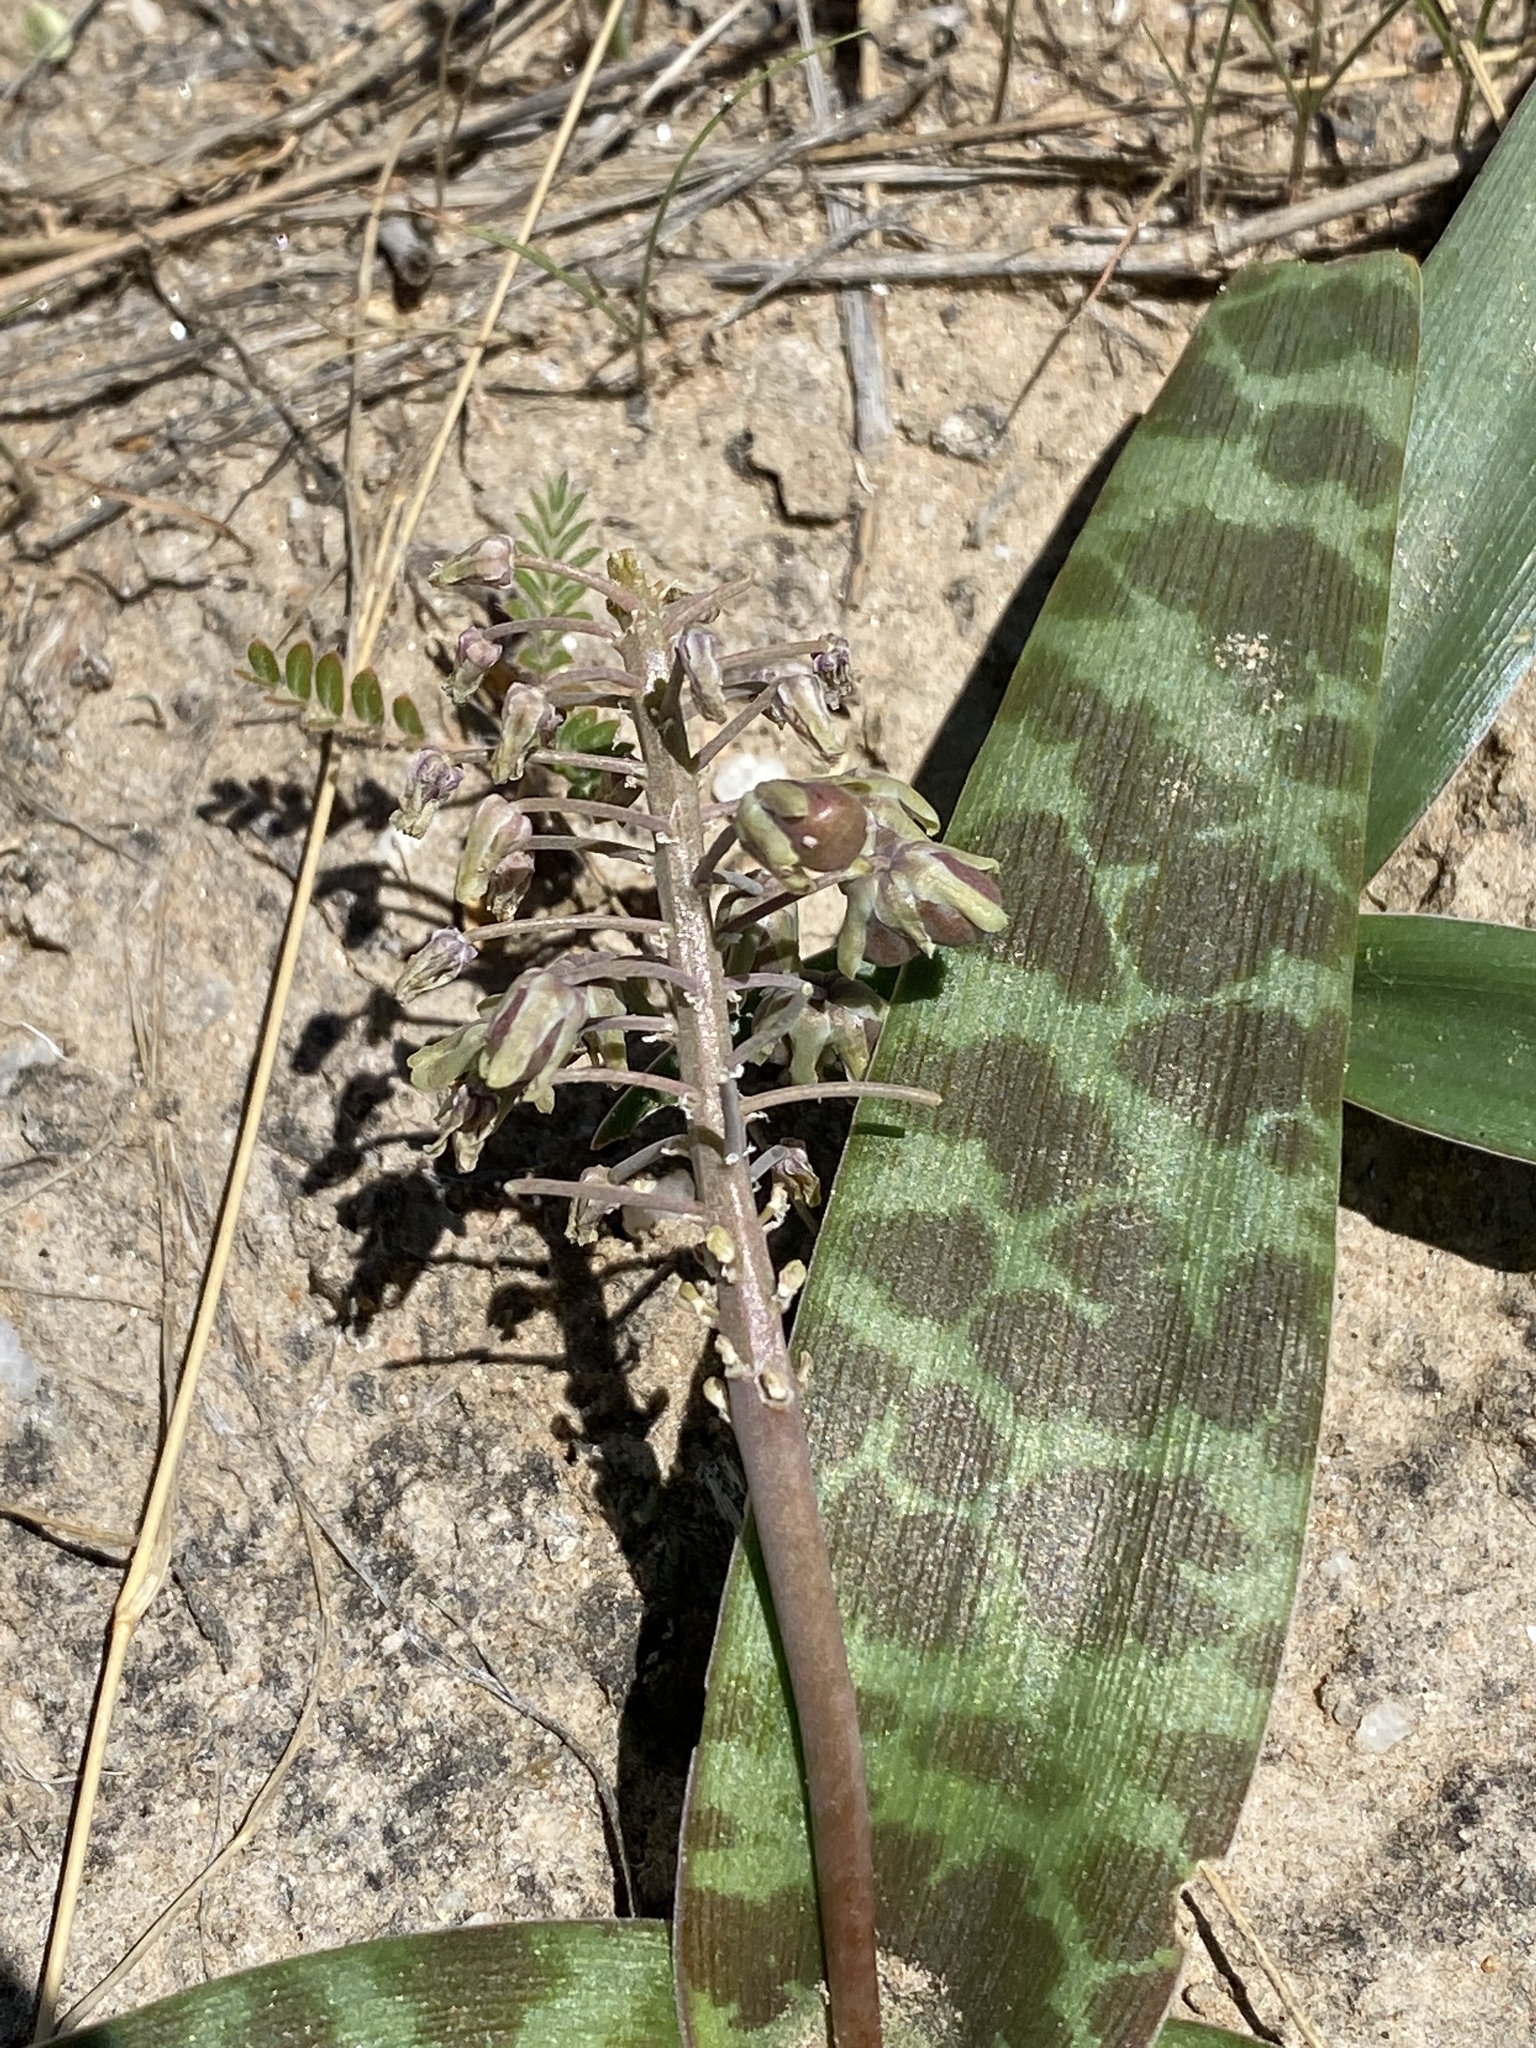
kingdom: Plantae
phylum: Tracheophyta
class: Liliopsida
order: Asparagales
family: Asparagaceae
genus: Ledebouria
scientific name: Ledebouria scabrida
